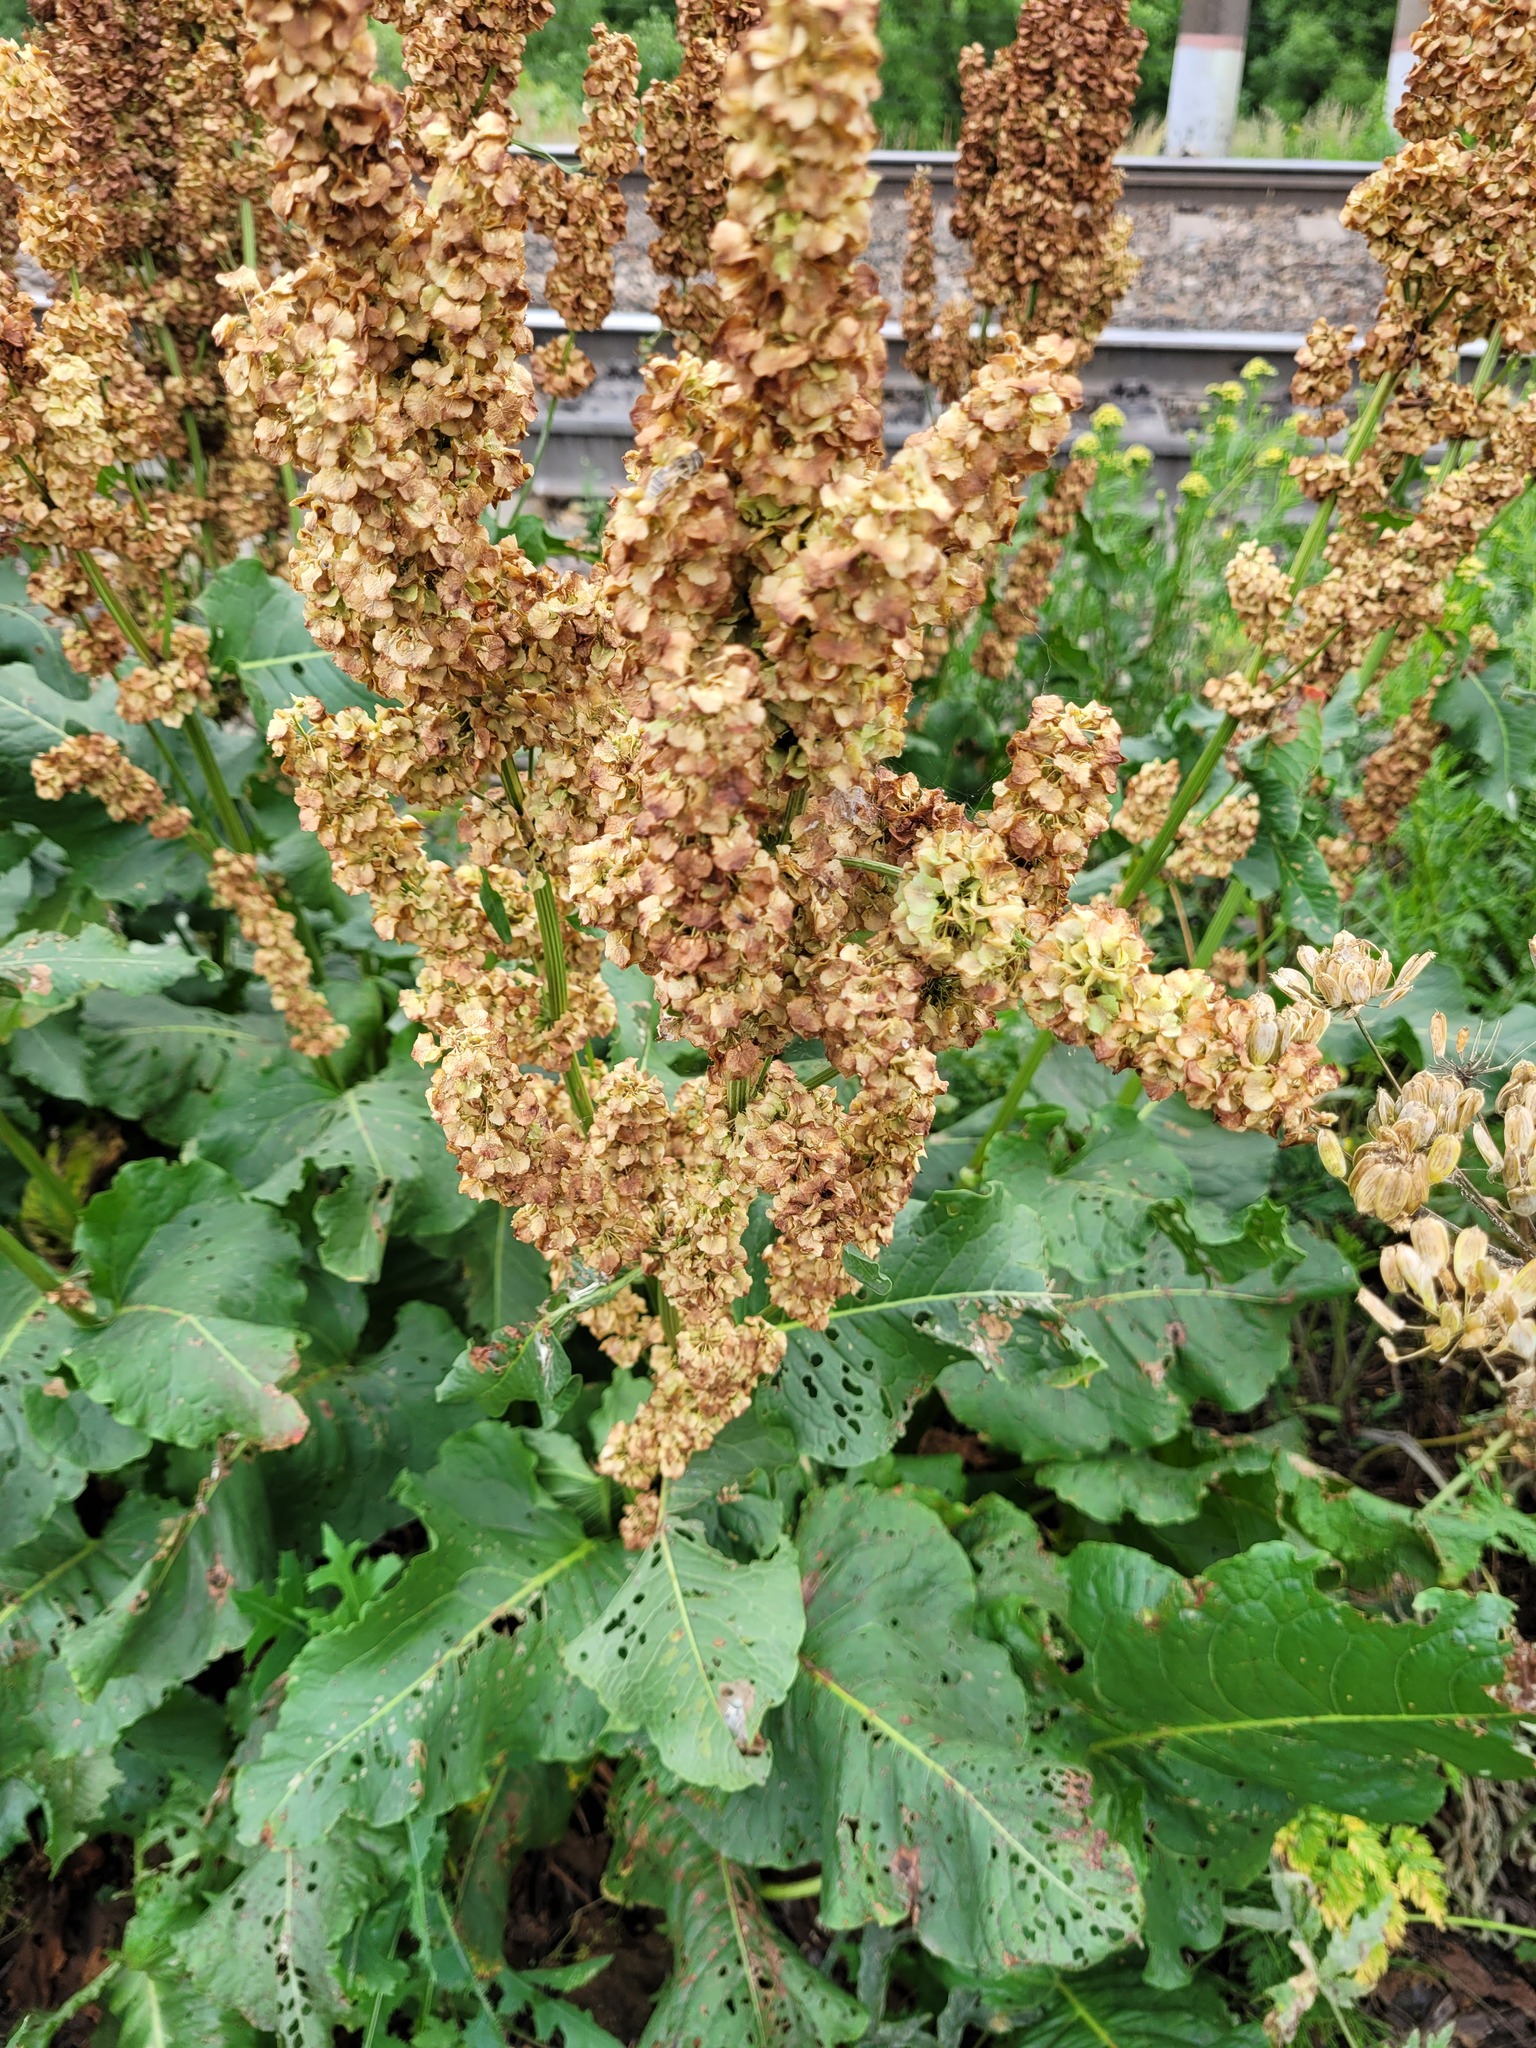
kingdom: Plantae
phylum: Tracheophyta
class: Magnoliopsida
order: Caryophyllales
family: Polygonaceae
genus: Rumex
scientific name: Rumex confertus
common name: Russian dock
